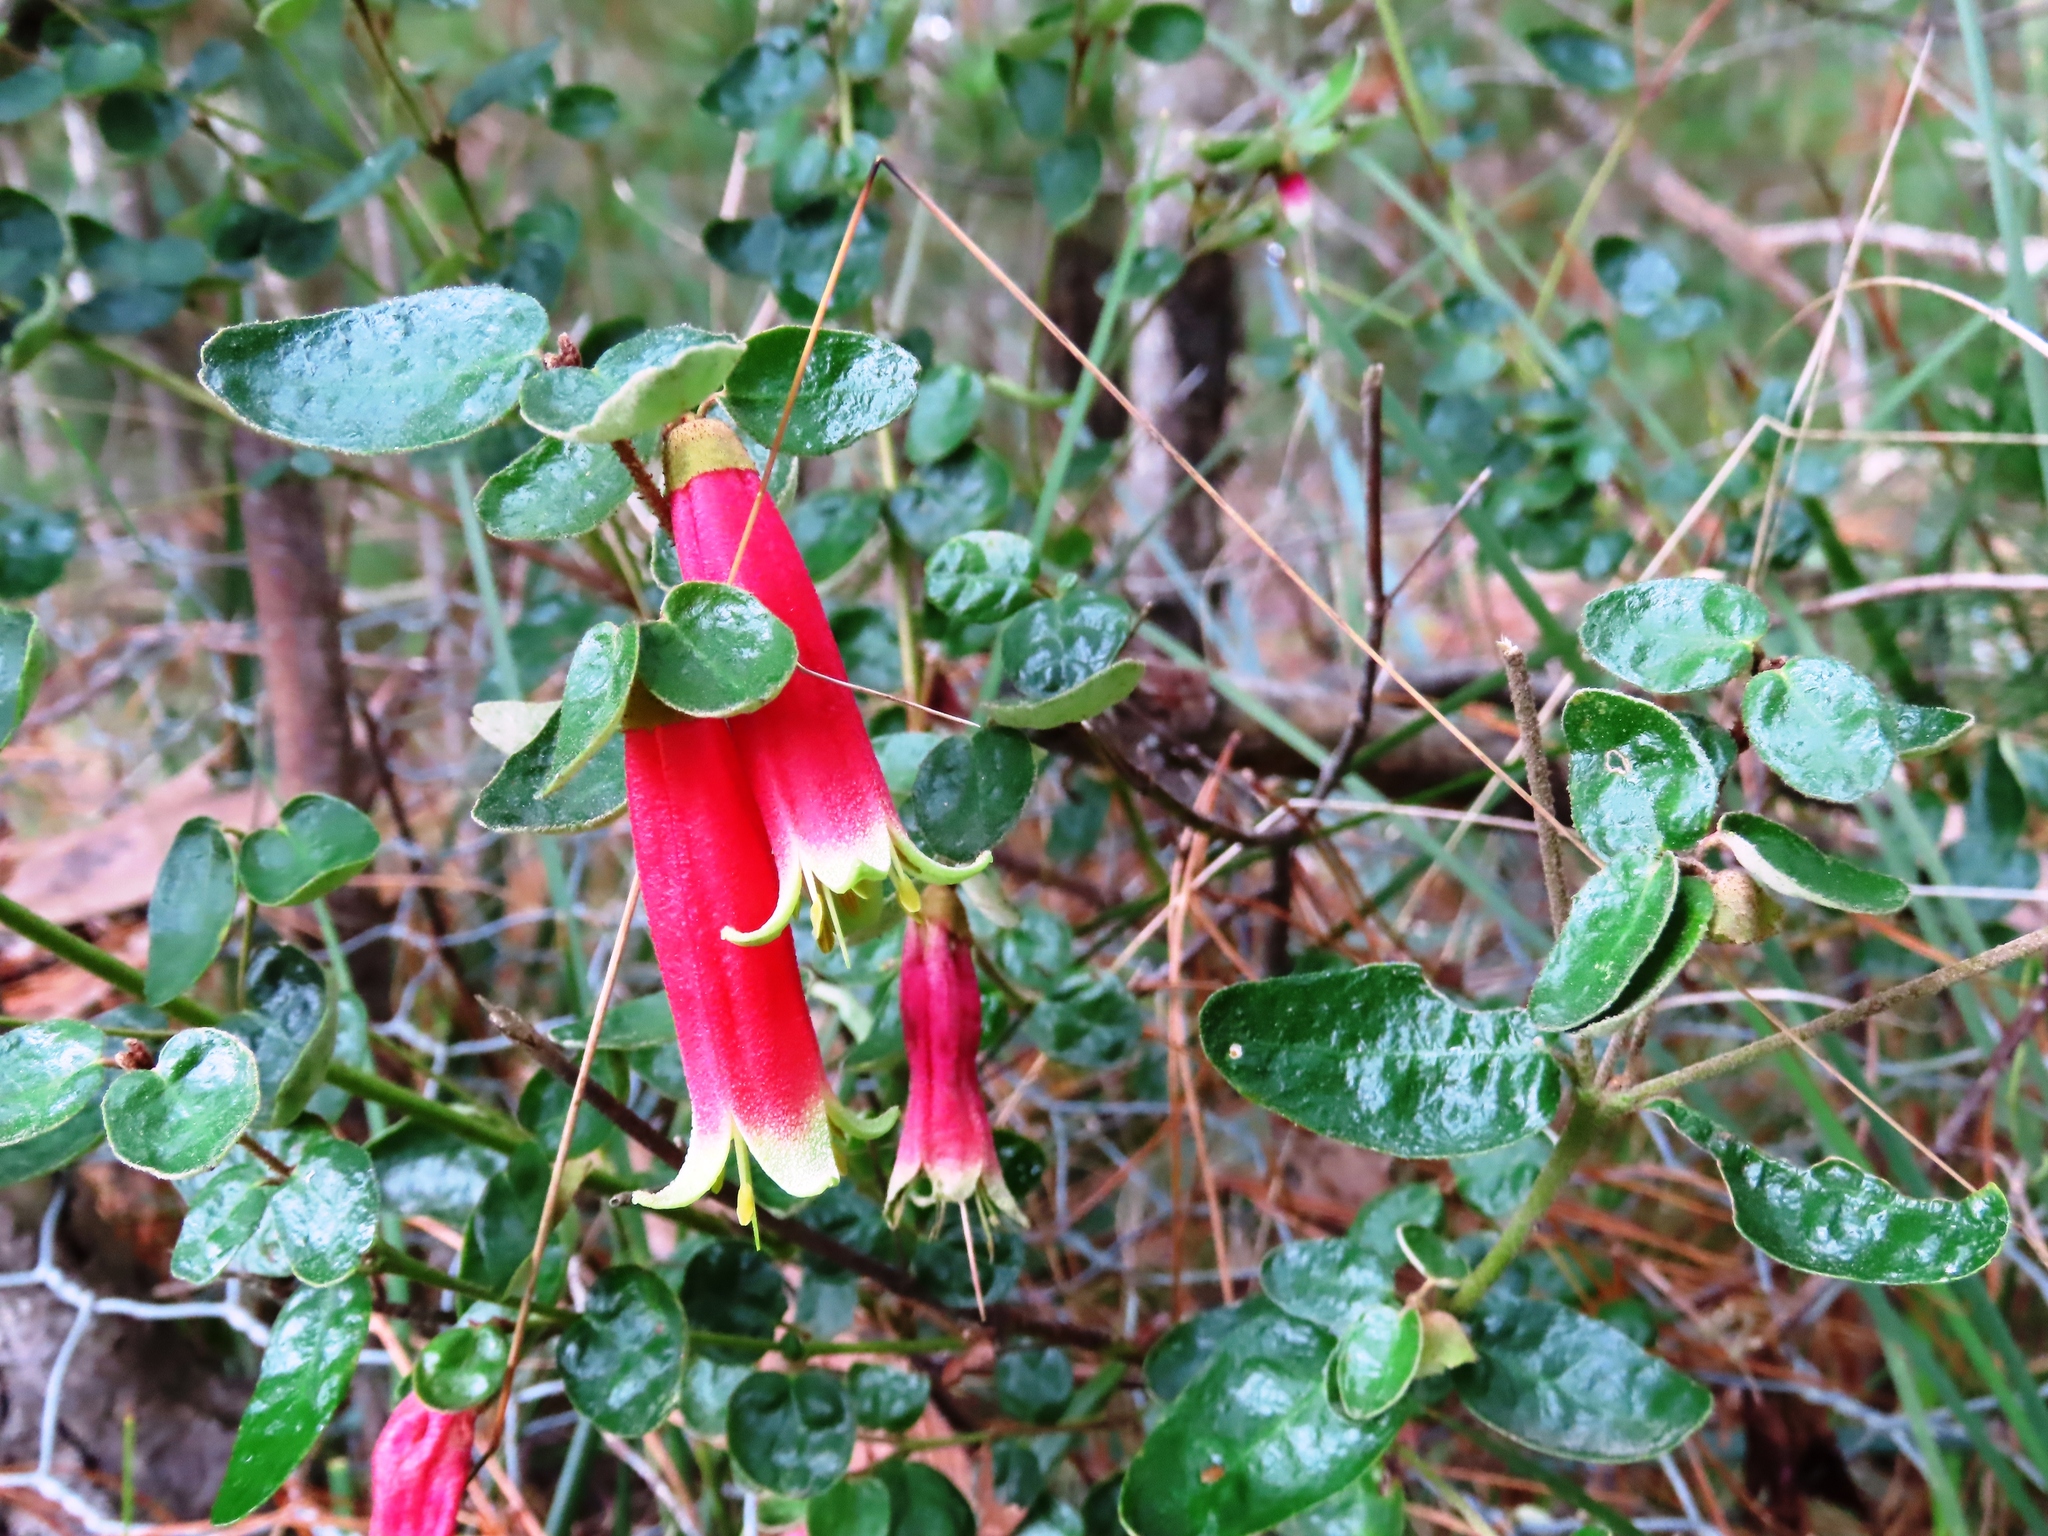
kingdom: Plantae
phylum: Tracheophyta
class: Magnoliopsida
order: Sapindales
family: Rutaceae
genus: Correa
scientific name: Correa reflexa
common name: Common correa
